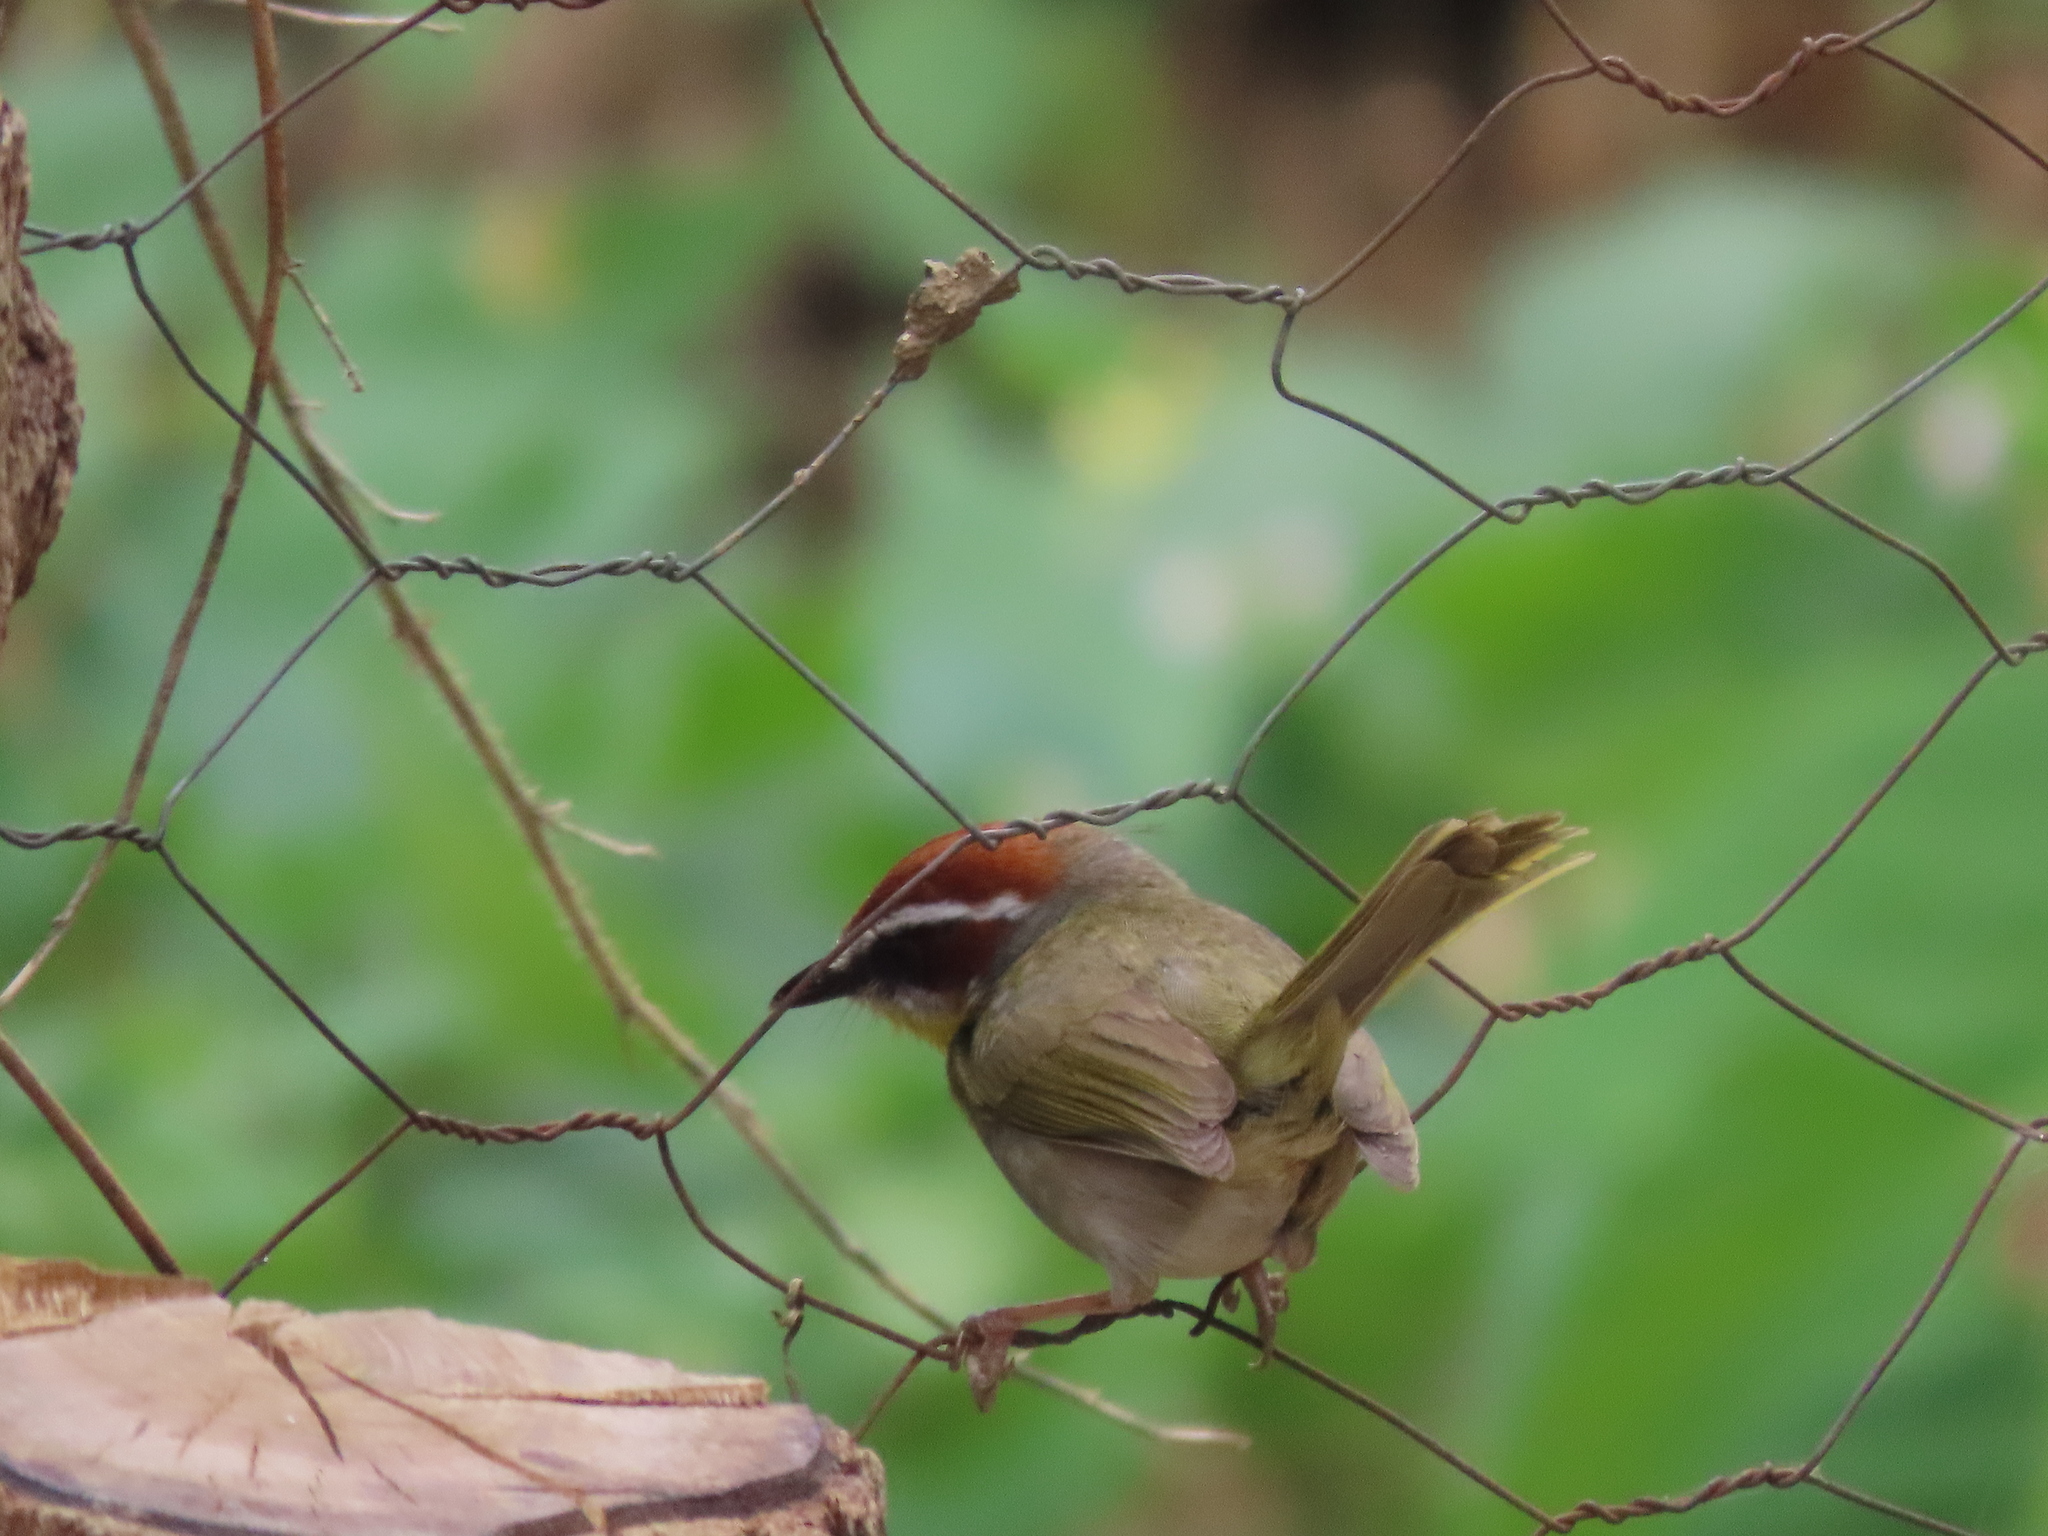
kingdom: Animalia
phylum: Chordata
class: Aves
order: Passeriformes
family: Parulidae
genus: Basileuterus
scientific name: Basileuterus rufifrons
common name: Rufous-capped warbler
